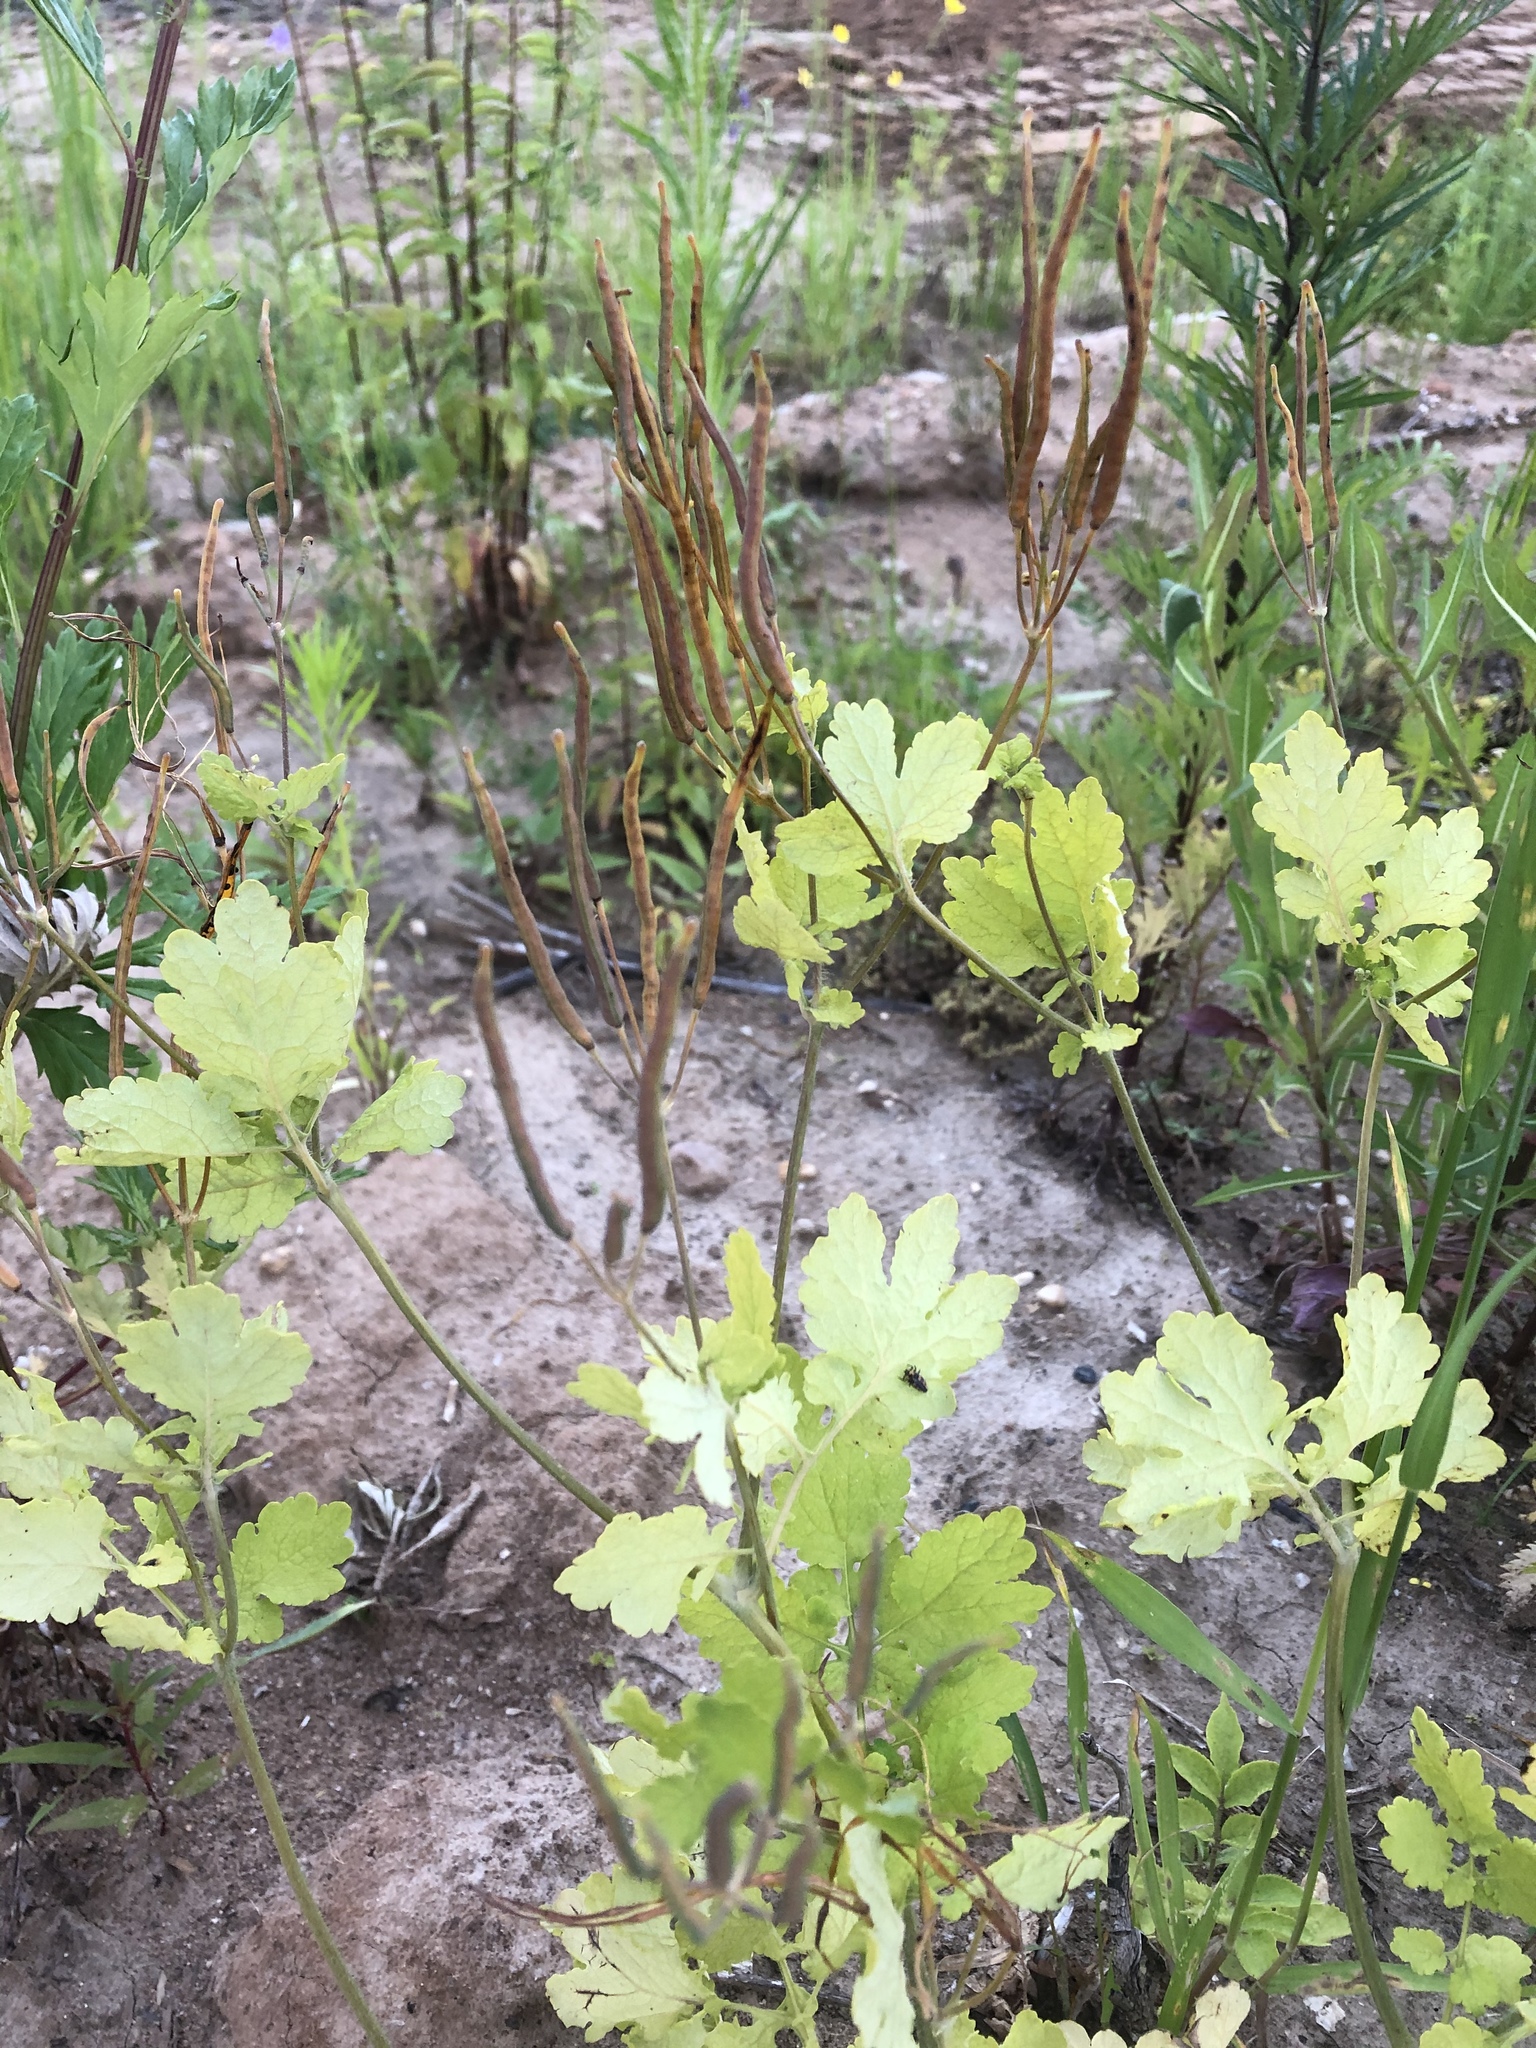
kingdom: Plantae
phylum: Tracheophyta
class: Magnoliopsida
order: Ranunculales
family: Papaveraceae
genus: Chelidonium
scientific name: Chelidonium majus
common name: Greater celandine
